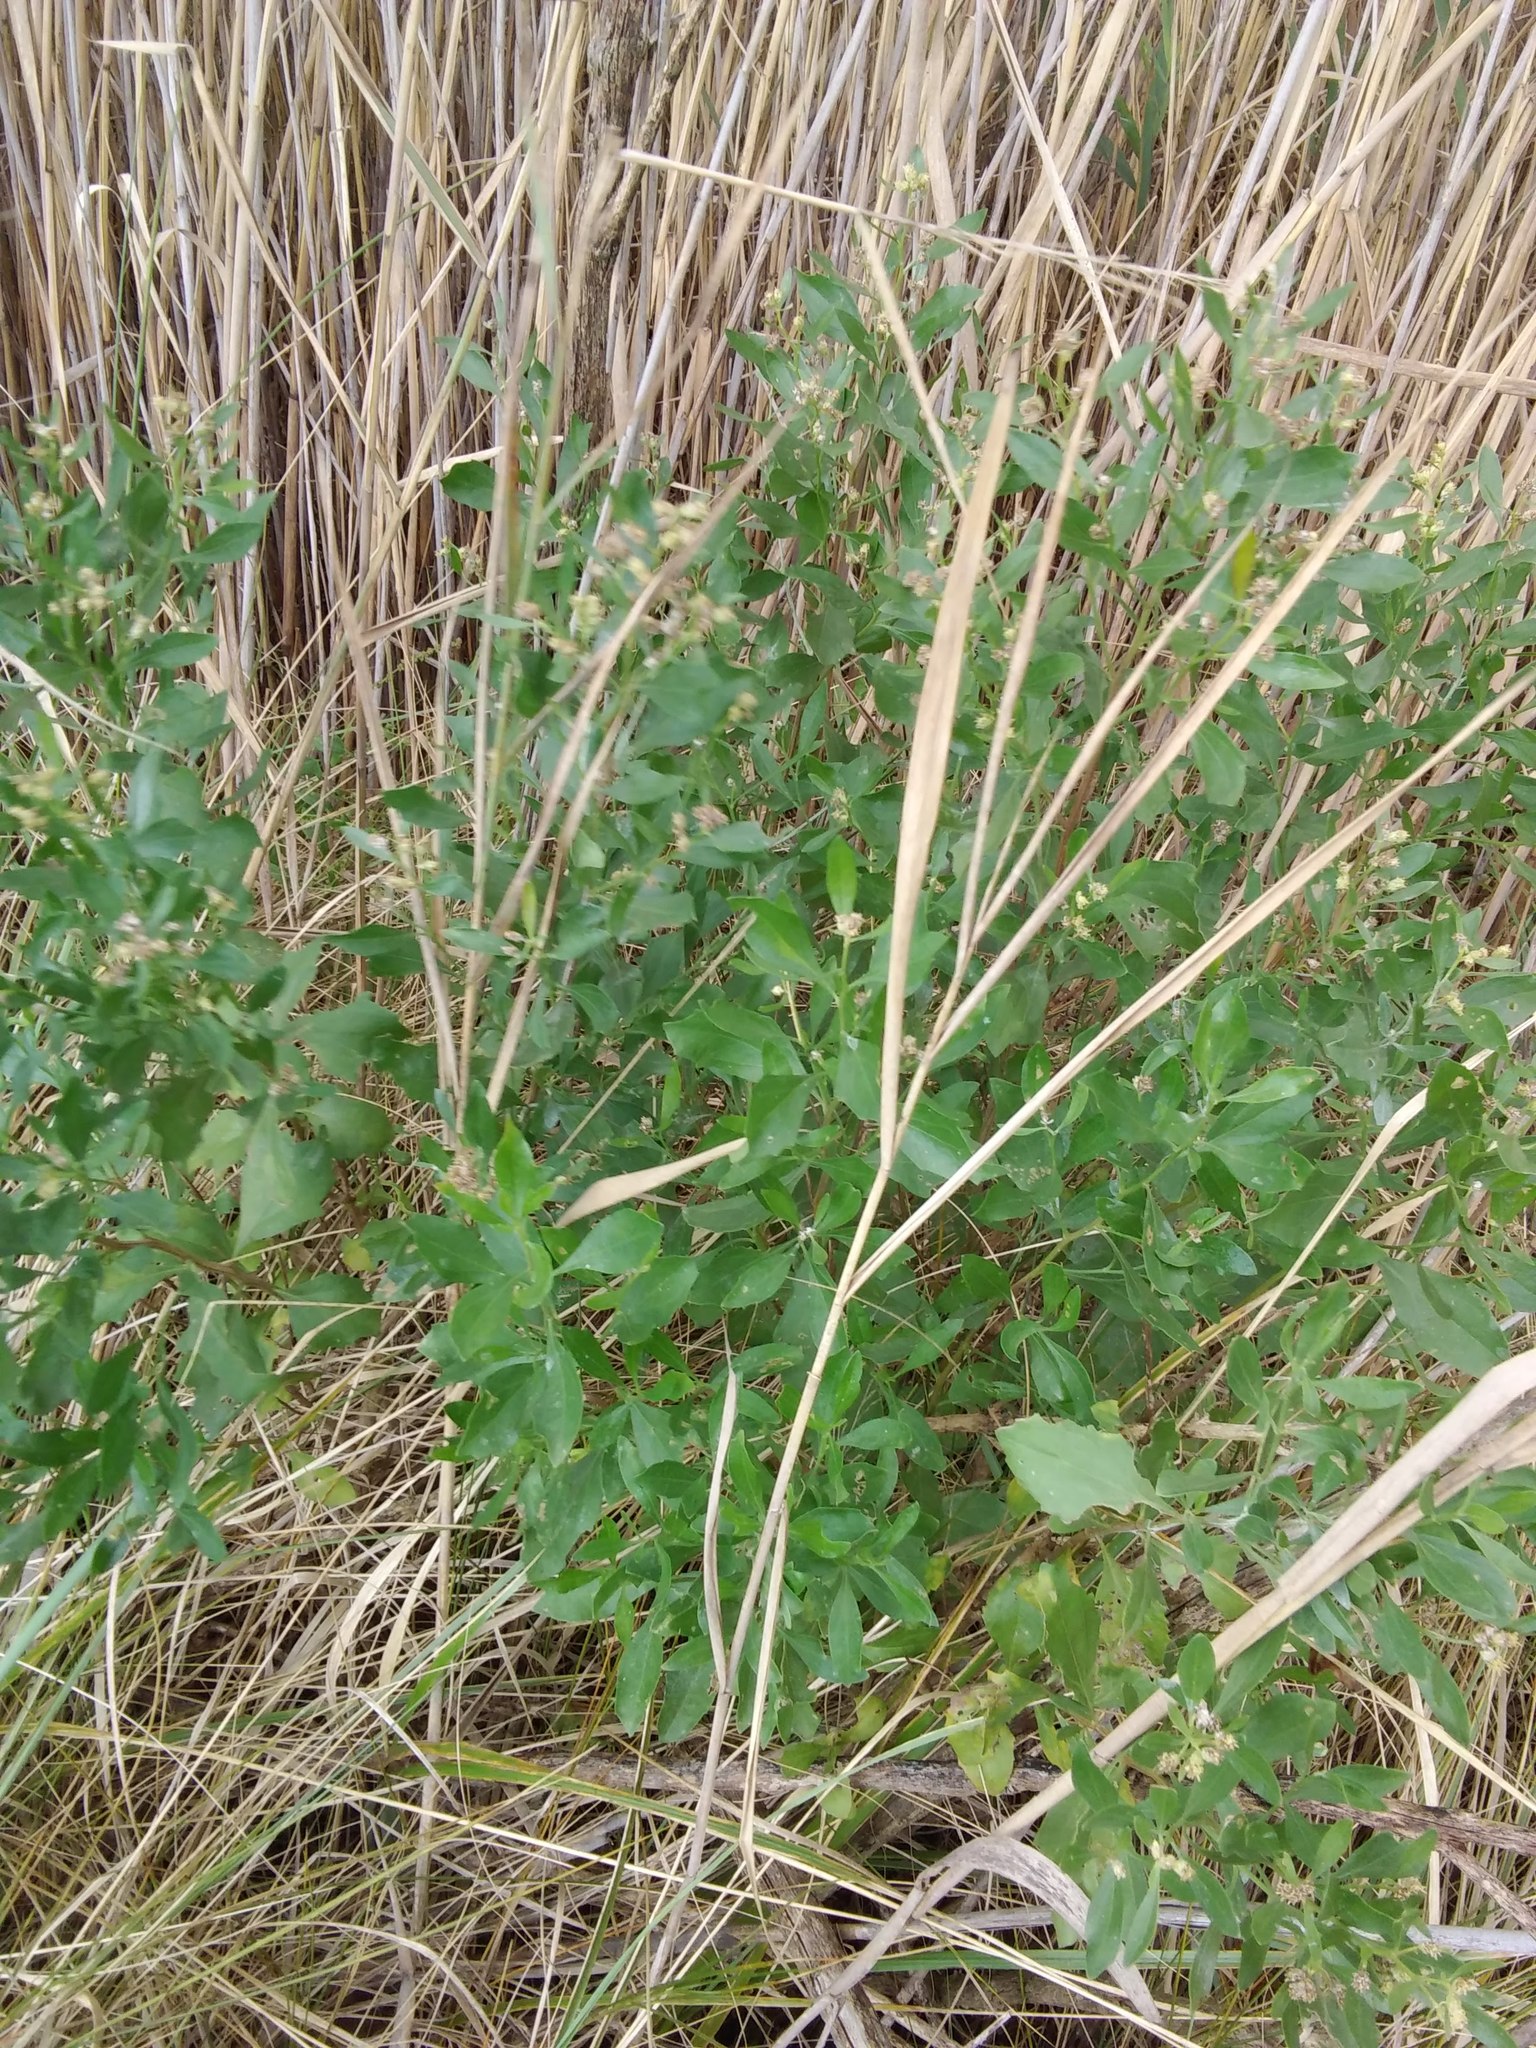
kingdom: Plantae
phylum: Tracheophyta
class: Magnoliopsida
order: Asterales
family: Asteraceae
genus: Baccharis
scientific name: Baccharis halimifolia
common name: Eastern baccharis
